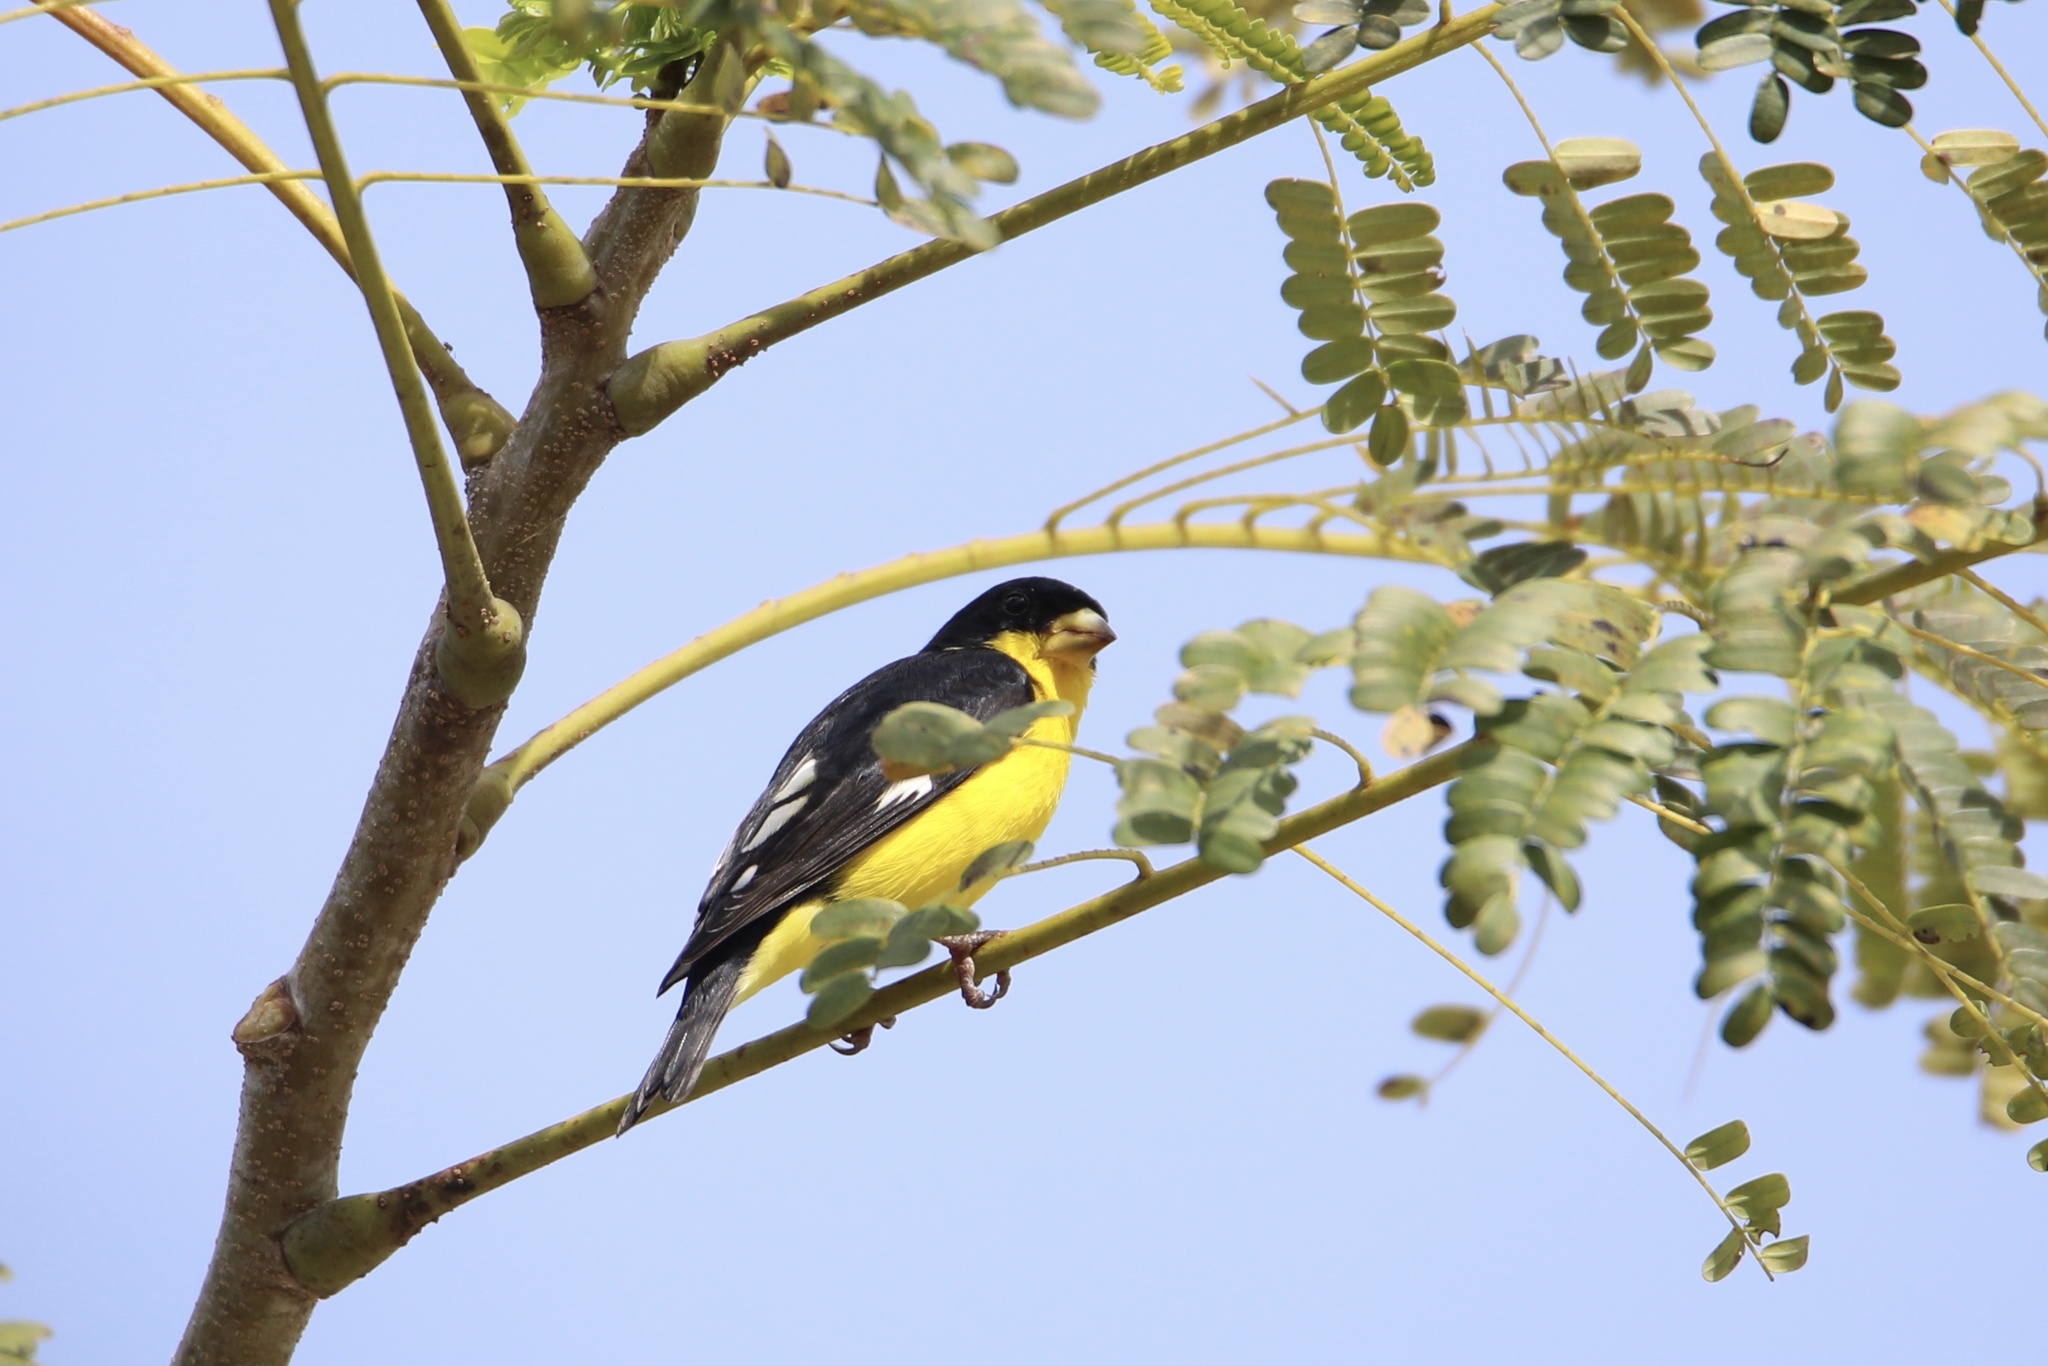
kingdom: Animalia
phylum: Chordata
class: Aves
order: Passeriformes
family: Fringillidae
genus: Spinus
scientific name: Spinus psaltria
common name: Lesser goldfinch
